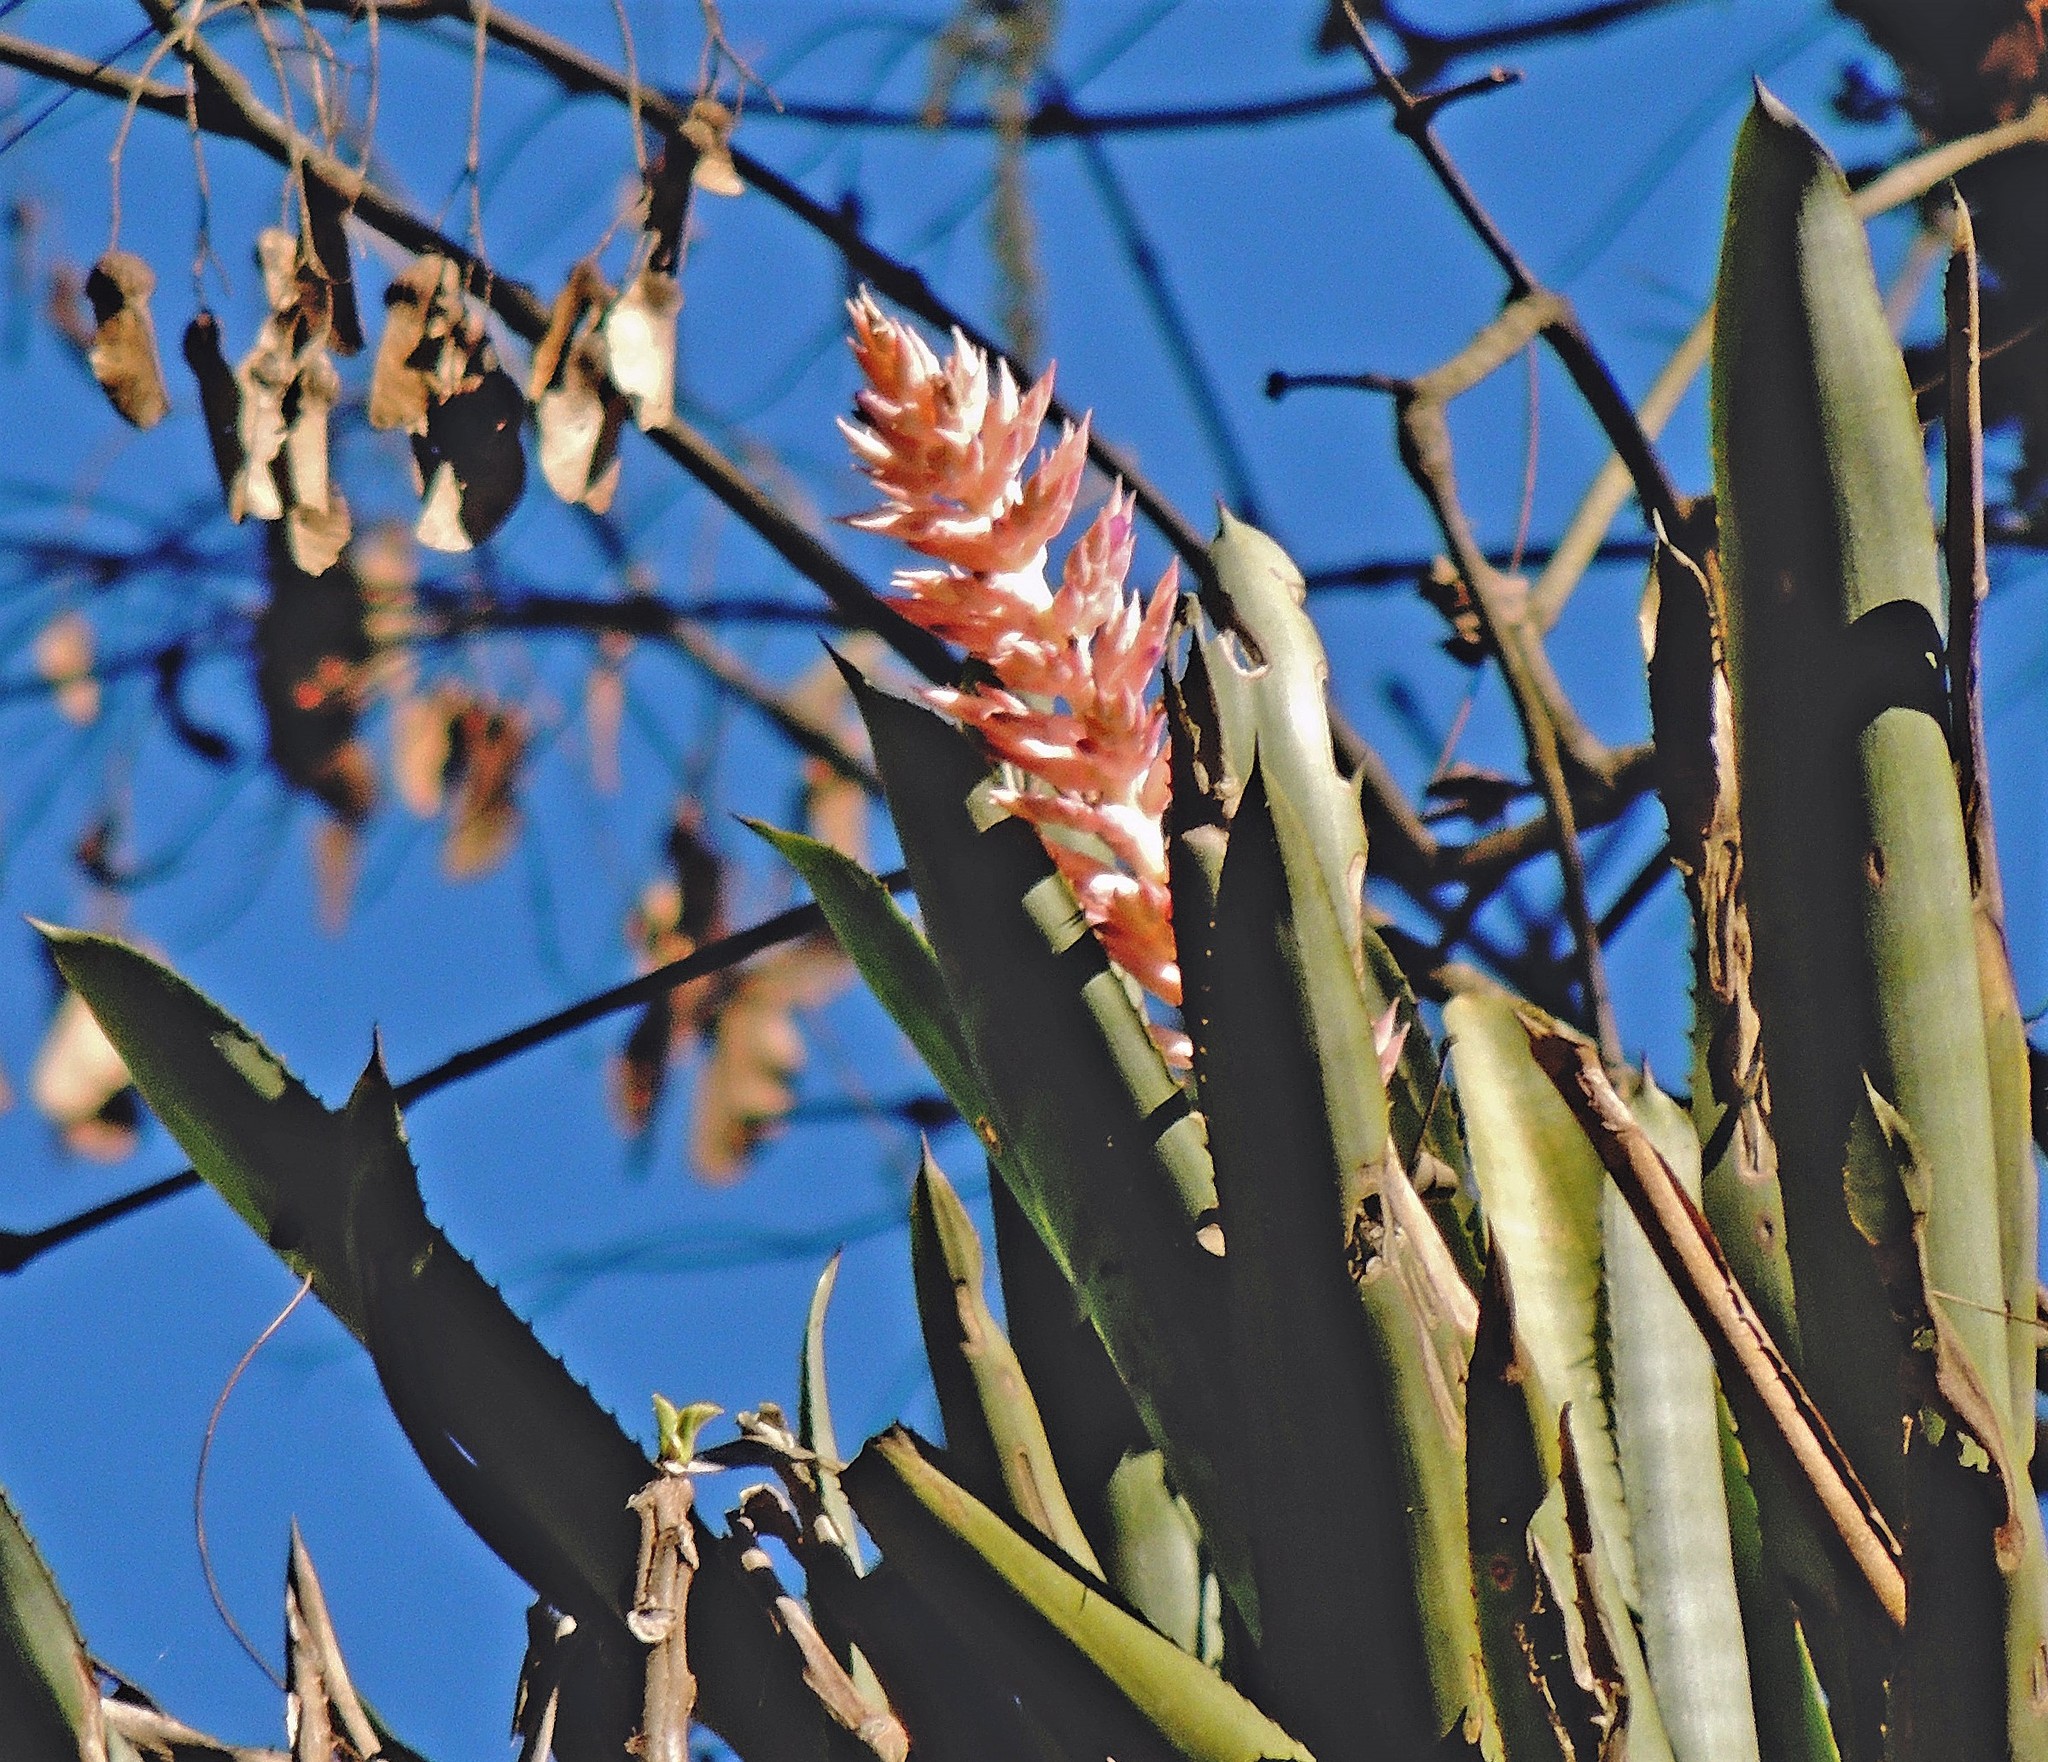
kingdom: Plantae
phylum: Tracheophyta
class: Liliopsida
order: Poales
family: Bromeliaceae
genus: Aechmea
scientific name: Aechmea distichantha
